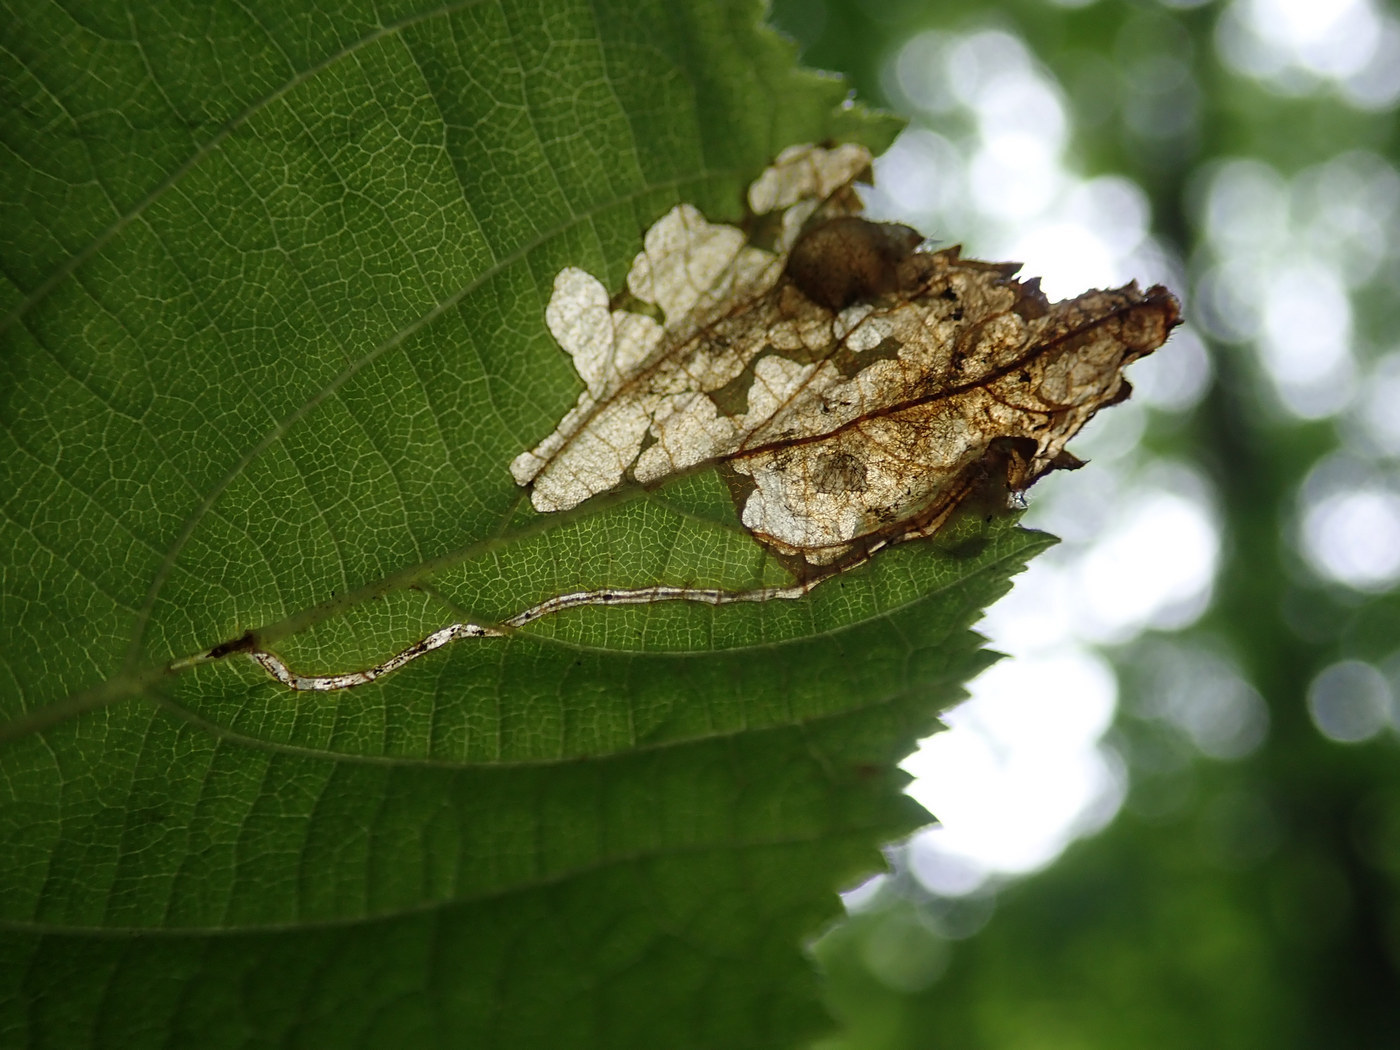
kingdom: Animalia
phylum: Arthropoda
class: Insecta
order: Coleoptera
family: Curculionidae
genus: Orchestes
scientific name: Orchestes mixtus
